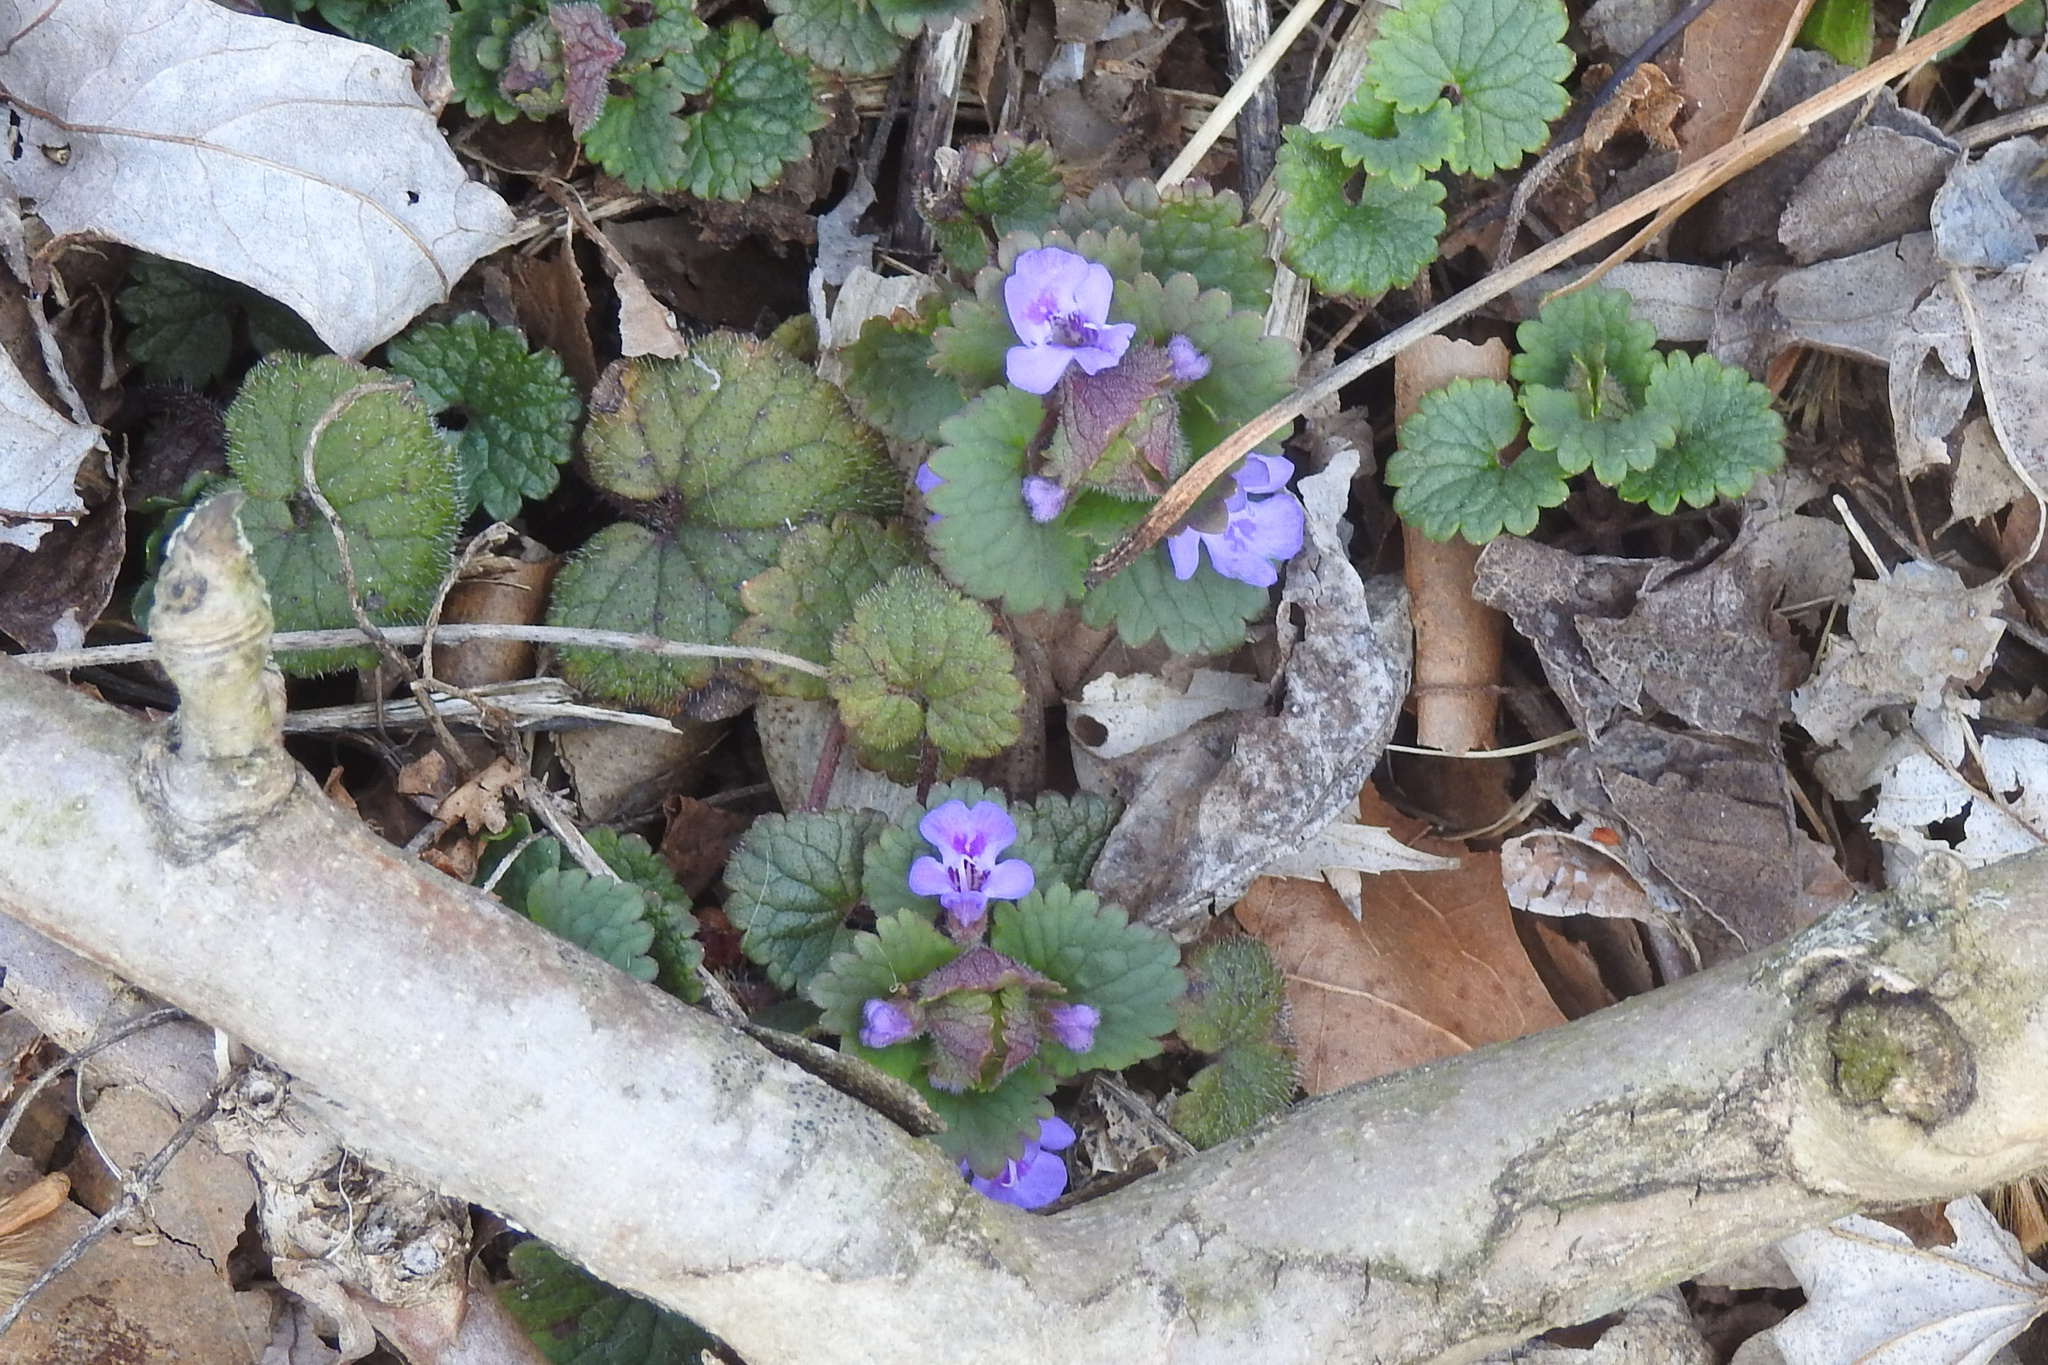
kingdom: Plantae
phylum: Tracheophyta
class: Magnoliopsida
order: Lamiales
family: Lamiaceae
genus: Glechoma
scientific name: Glechoma hederacea
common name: Ground ivy
